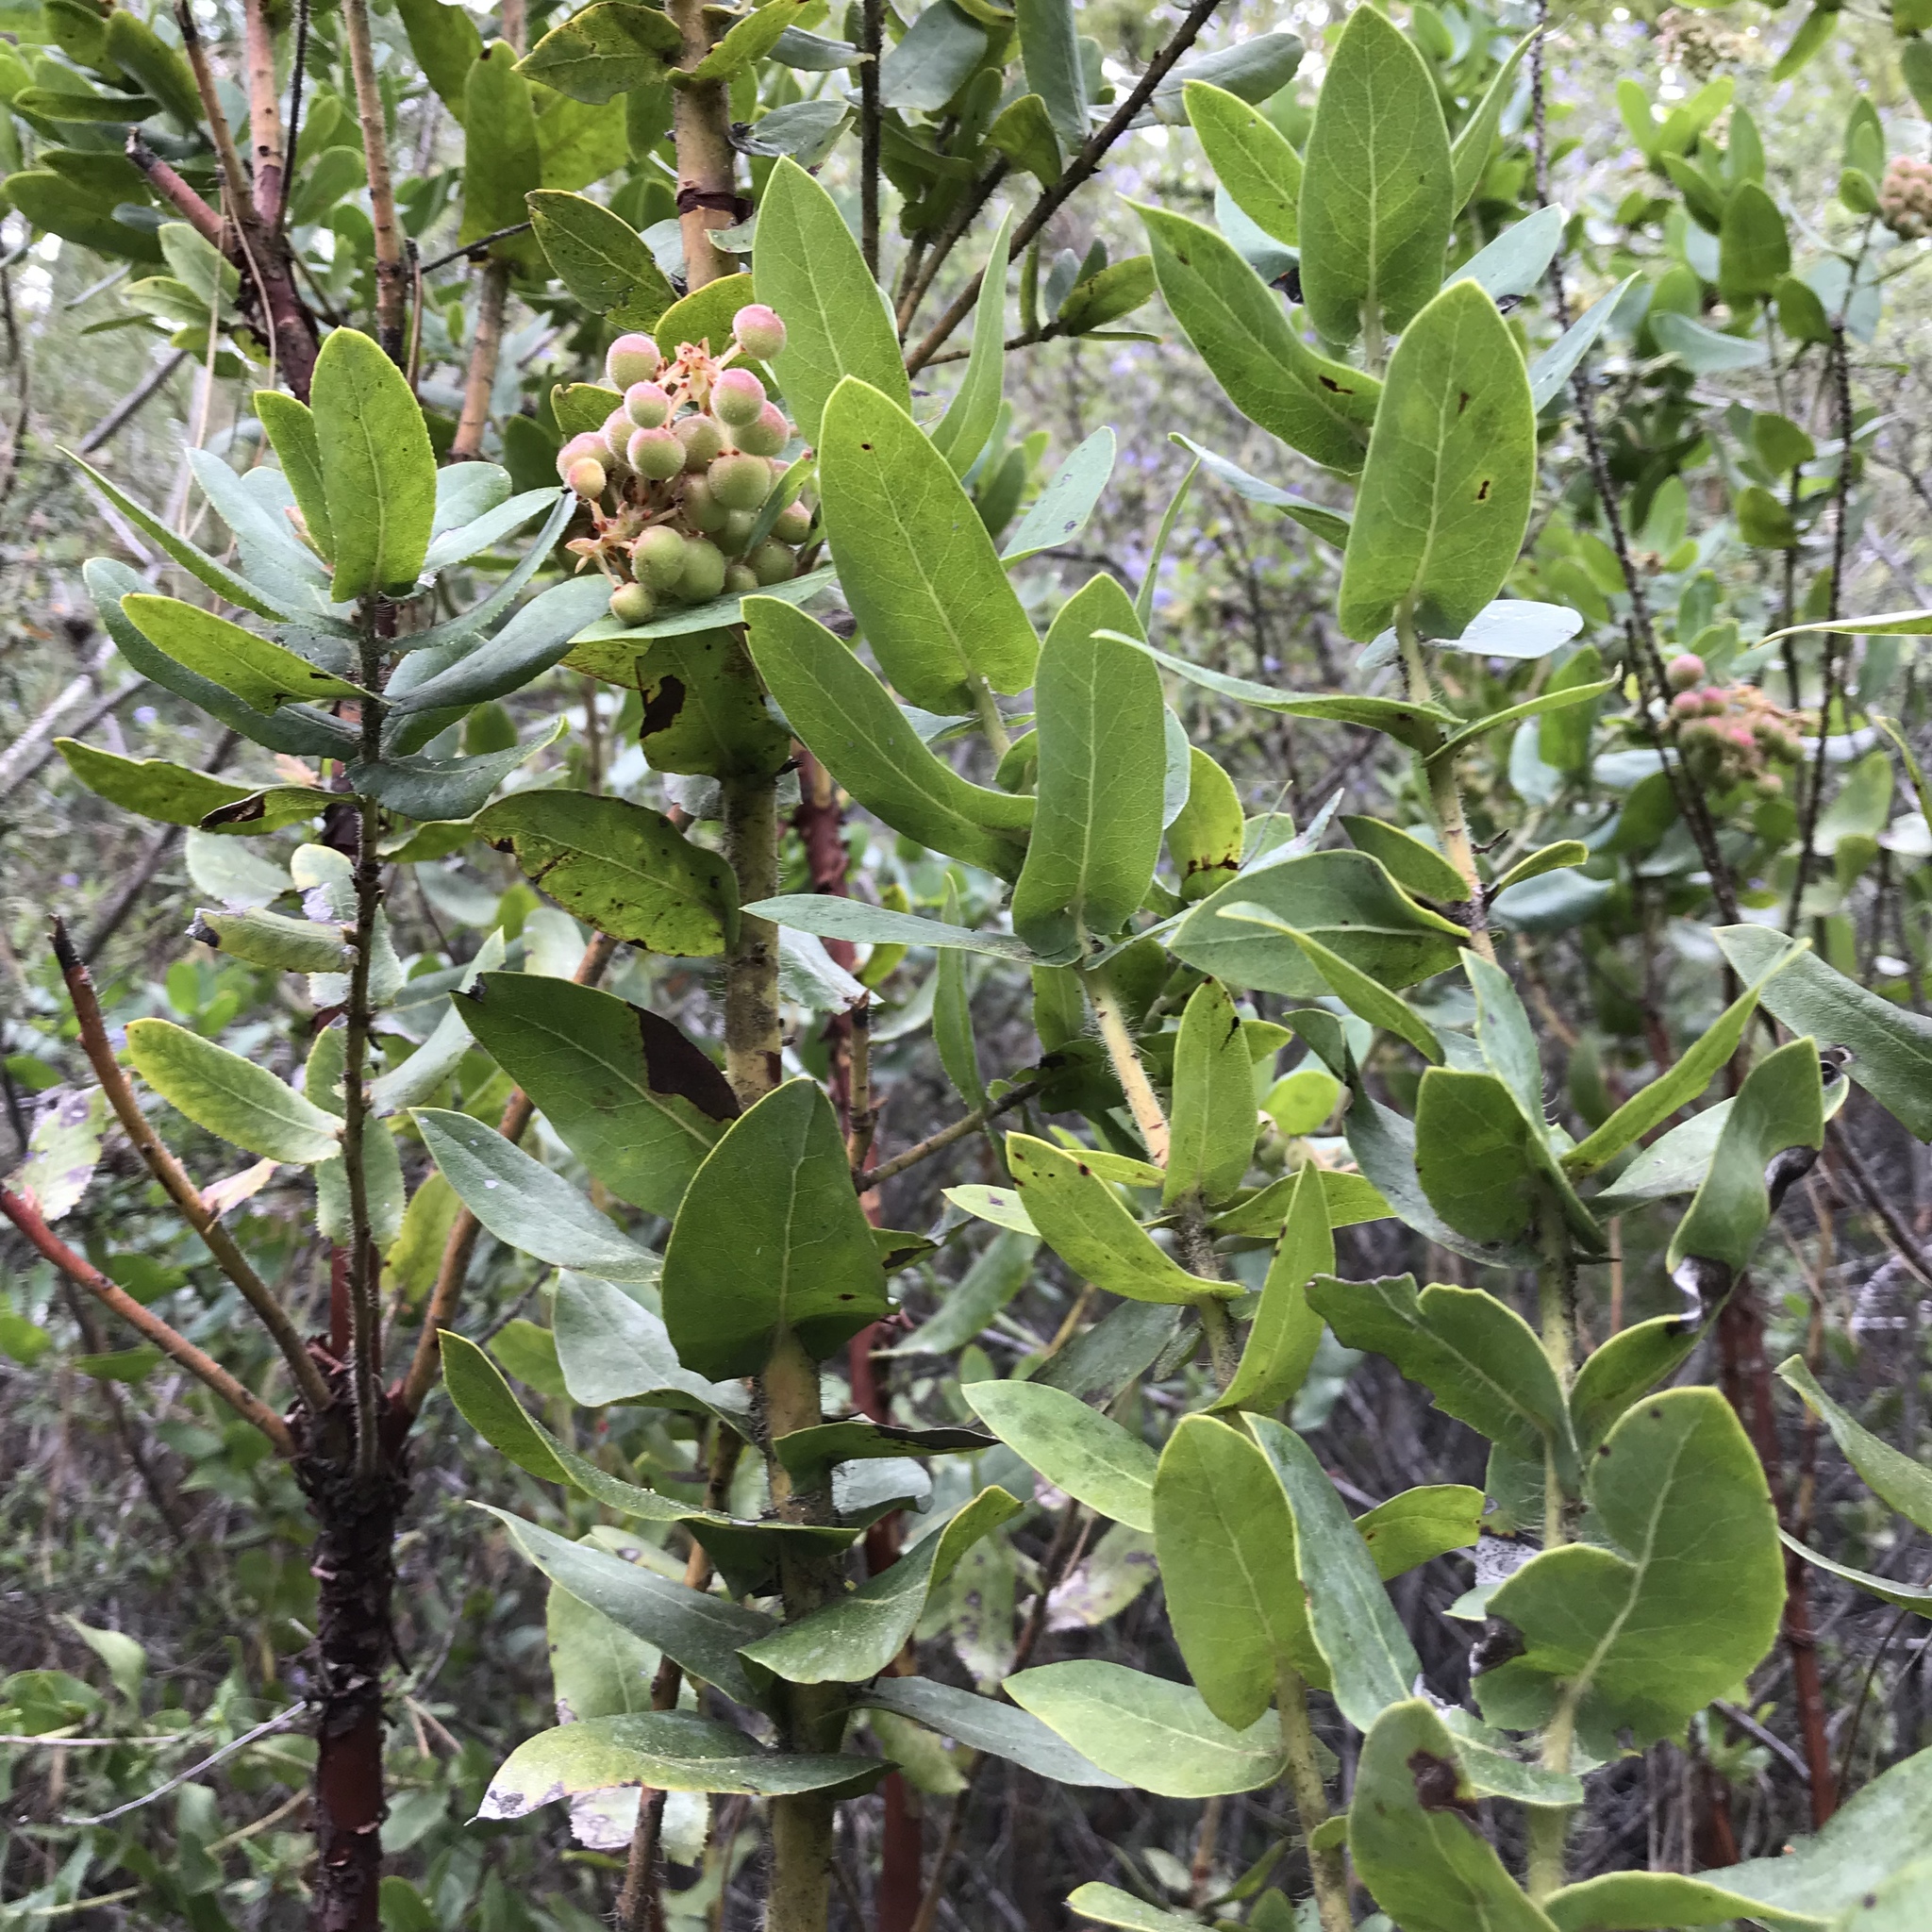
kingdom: Plantae
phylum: Tracheophyta
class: Magnoliopsida
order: Ericales
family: Ericaceae
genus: Arctostaphylos
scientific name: Arctostaphylos andersonii
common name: Santa cruz manzanita
